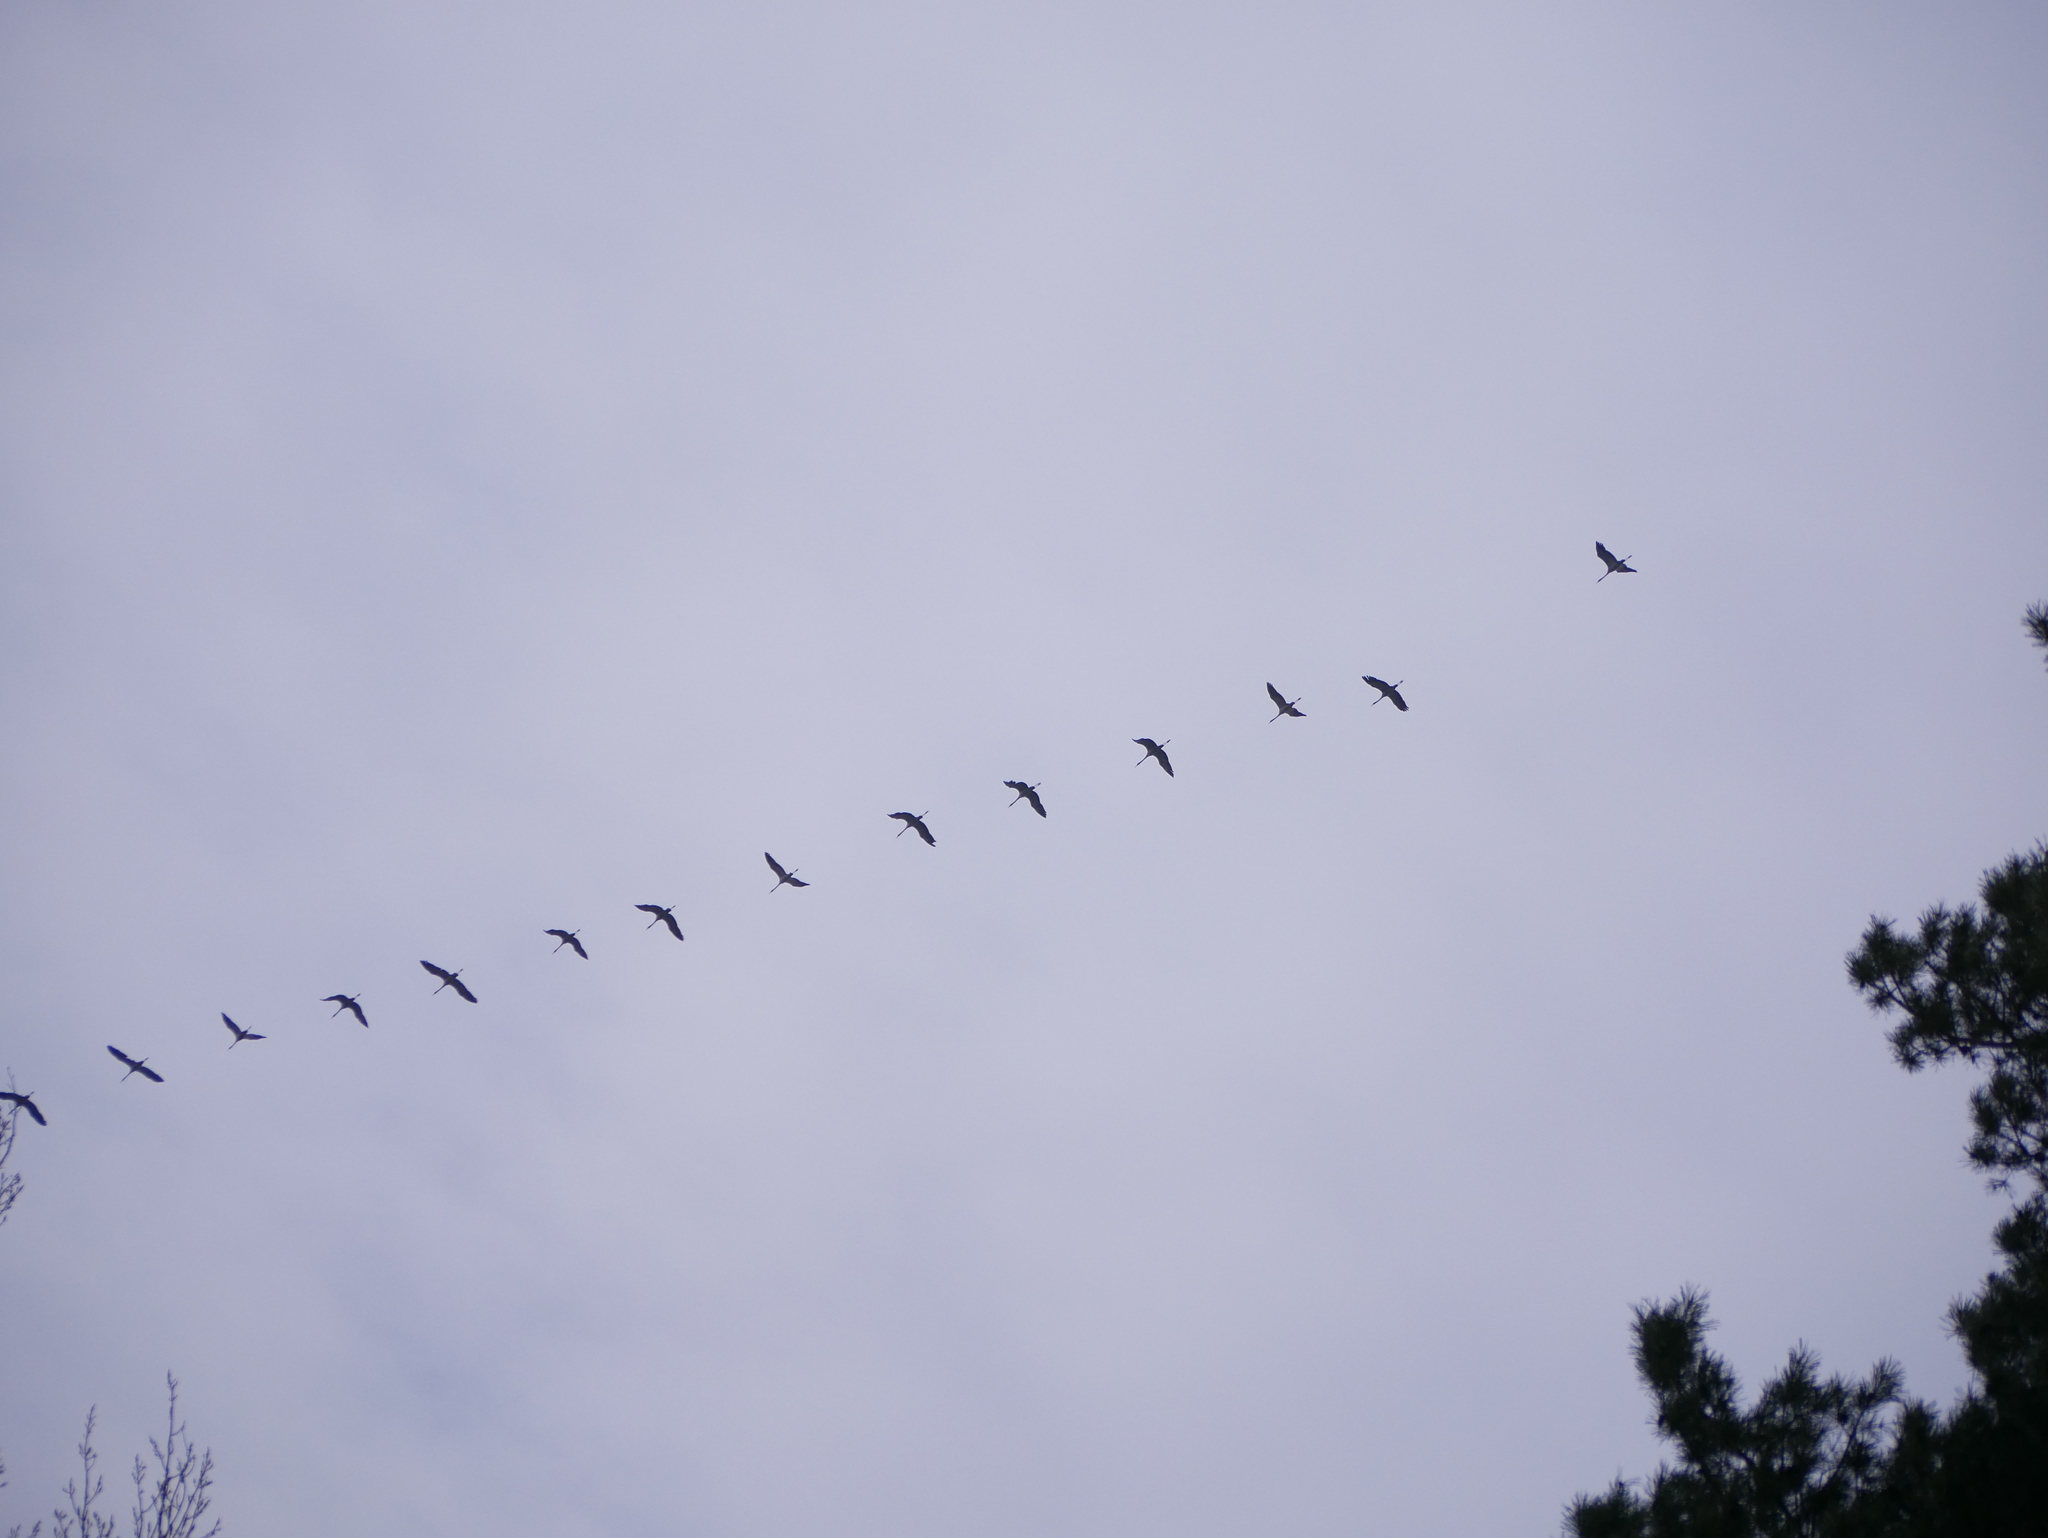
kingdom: Animalia
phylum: Chordata
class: Aves
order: Gruiformes
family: Gruidae
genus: Grus
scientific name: Grus grus
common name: Common crane
